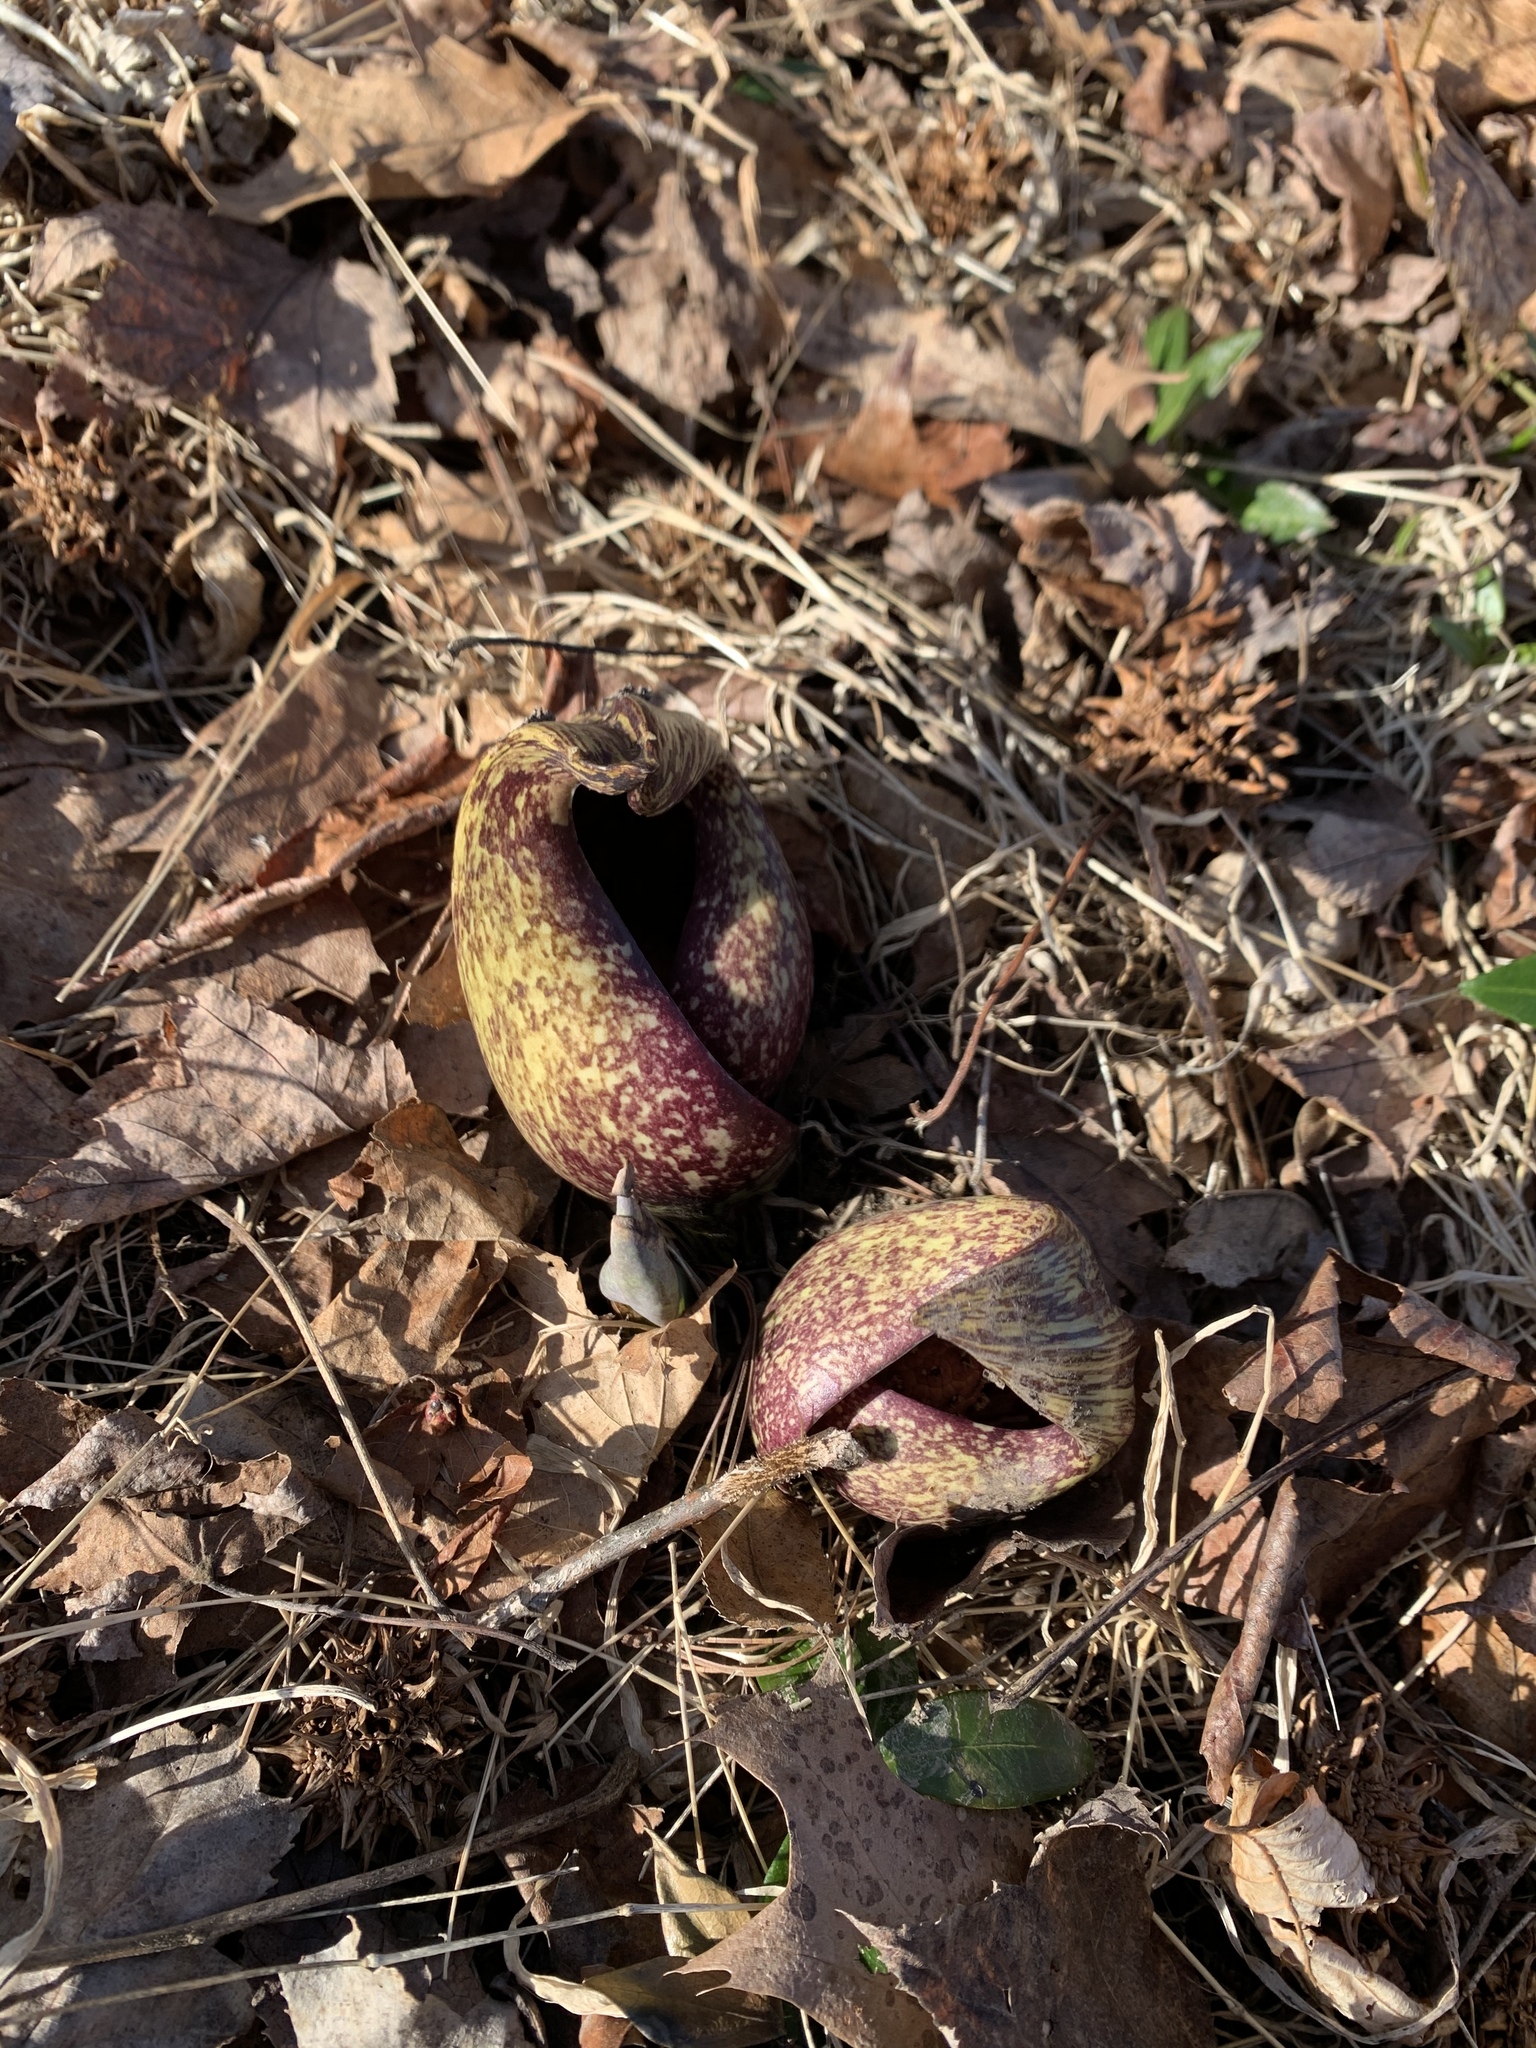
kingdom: Plantae
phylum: Tracheophyta
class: Liliopsida
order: Alismatales
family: Araceae
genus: Symplocarpus
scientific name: Symplocarpus foetidus
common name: Eastern skunk cabbage
